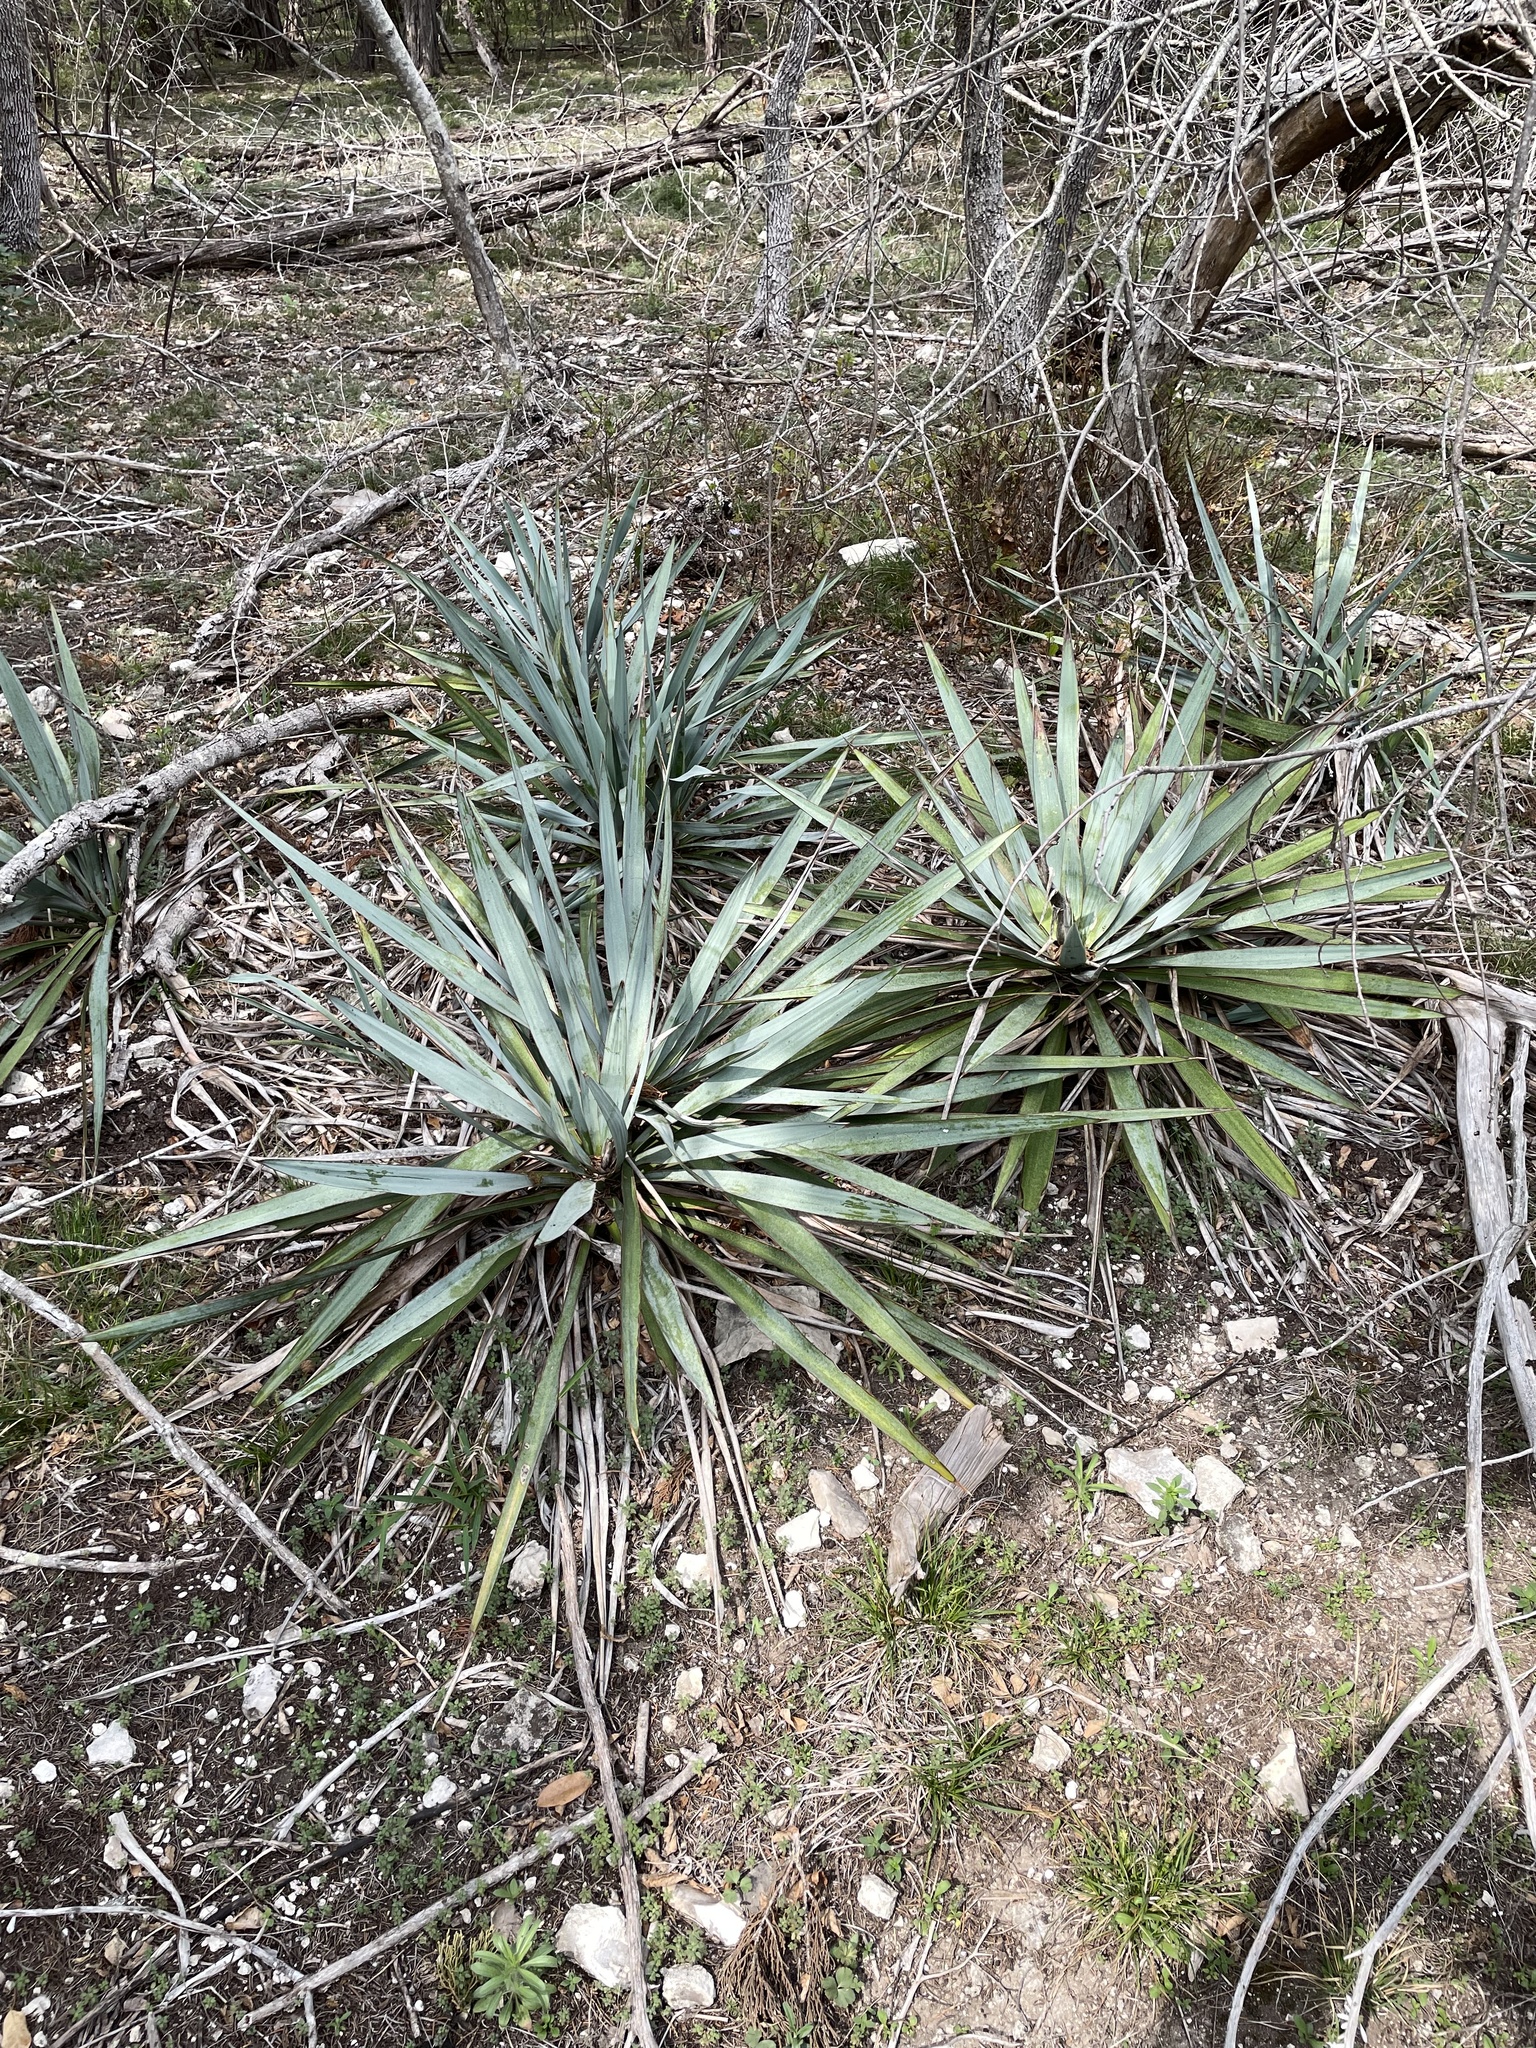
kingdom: Plantae
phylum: Tracheophyta
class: Liliopsida
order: Asparagales
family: Asparagaceae
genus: Yucca
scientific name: Yucca pallida
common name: Pale leaf yucca
